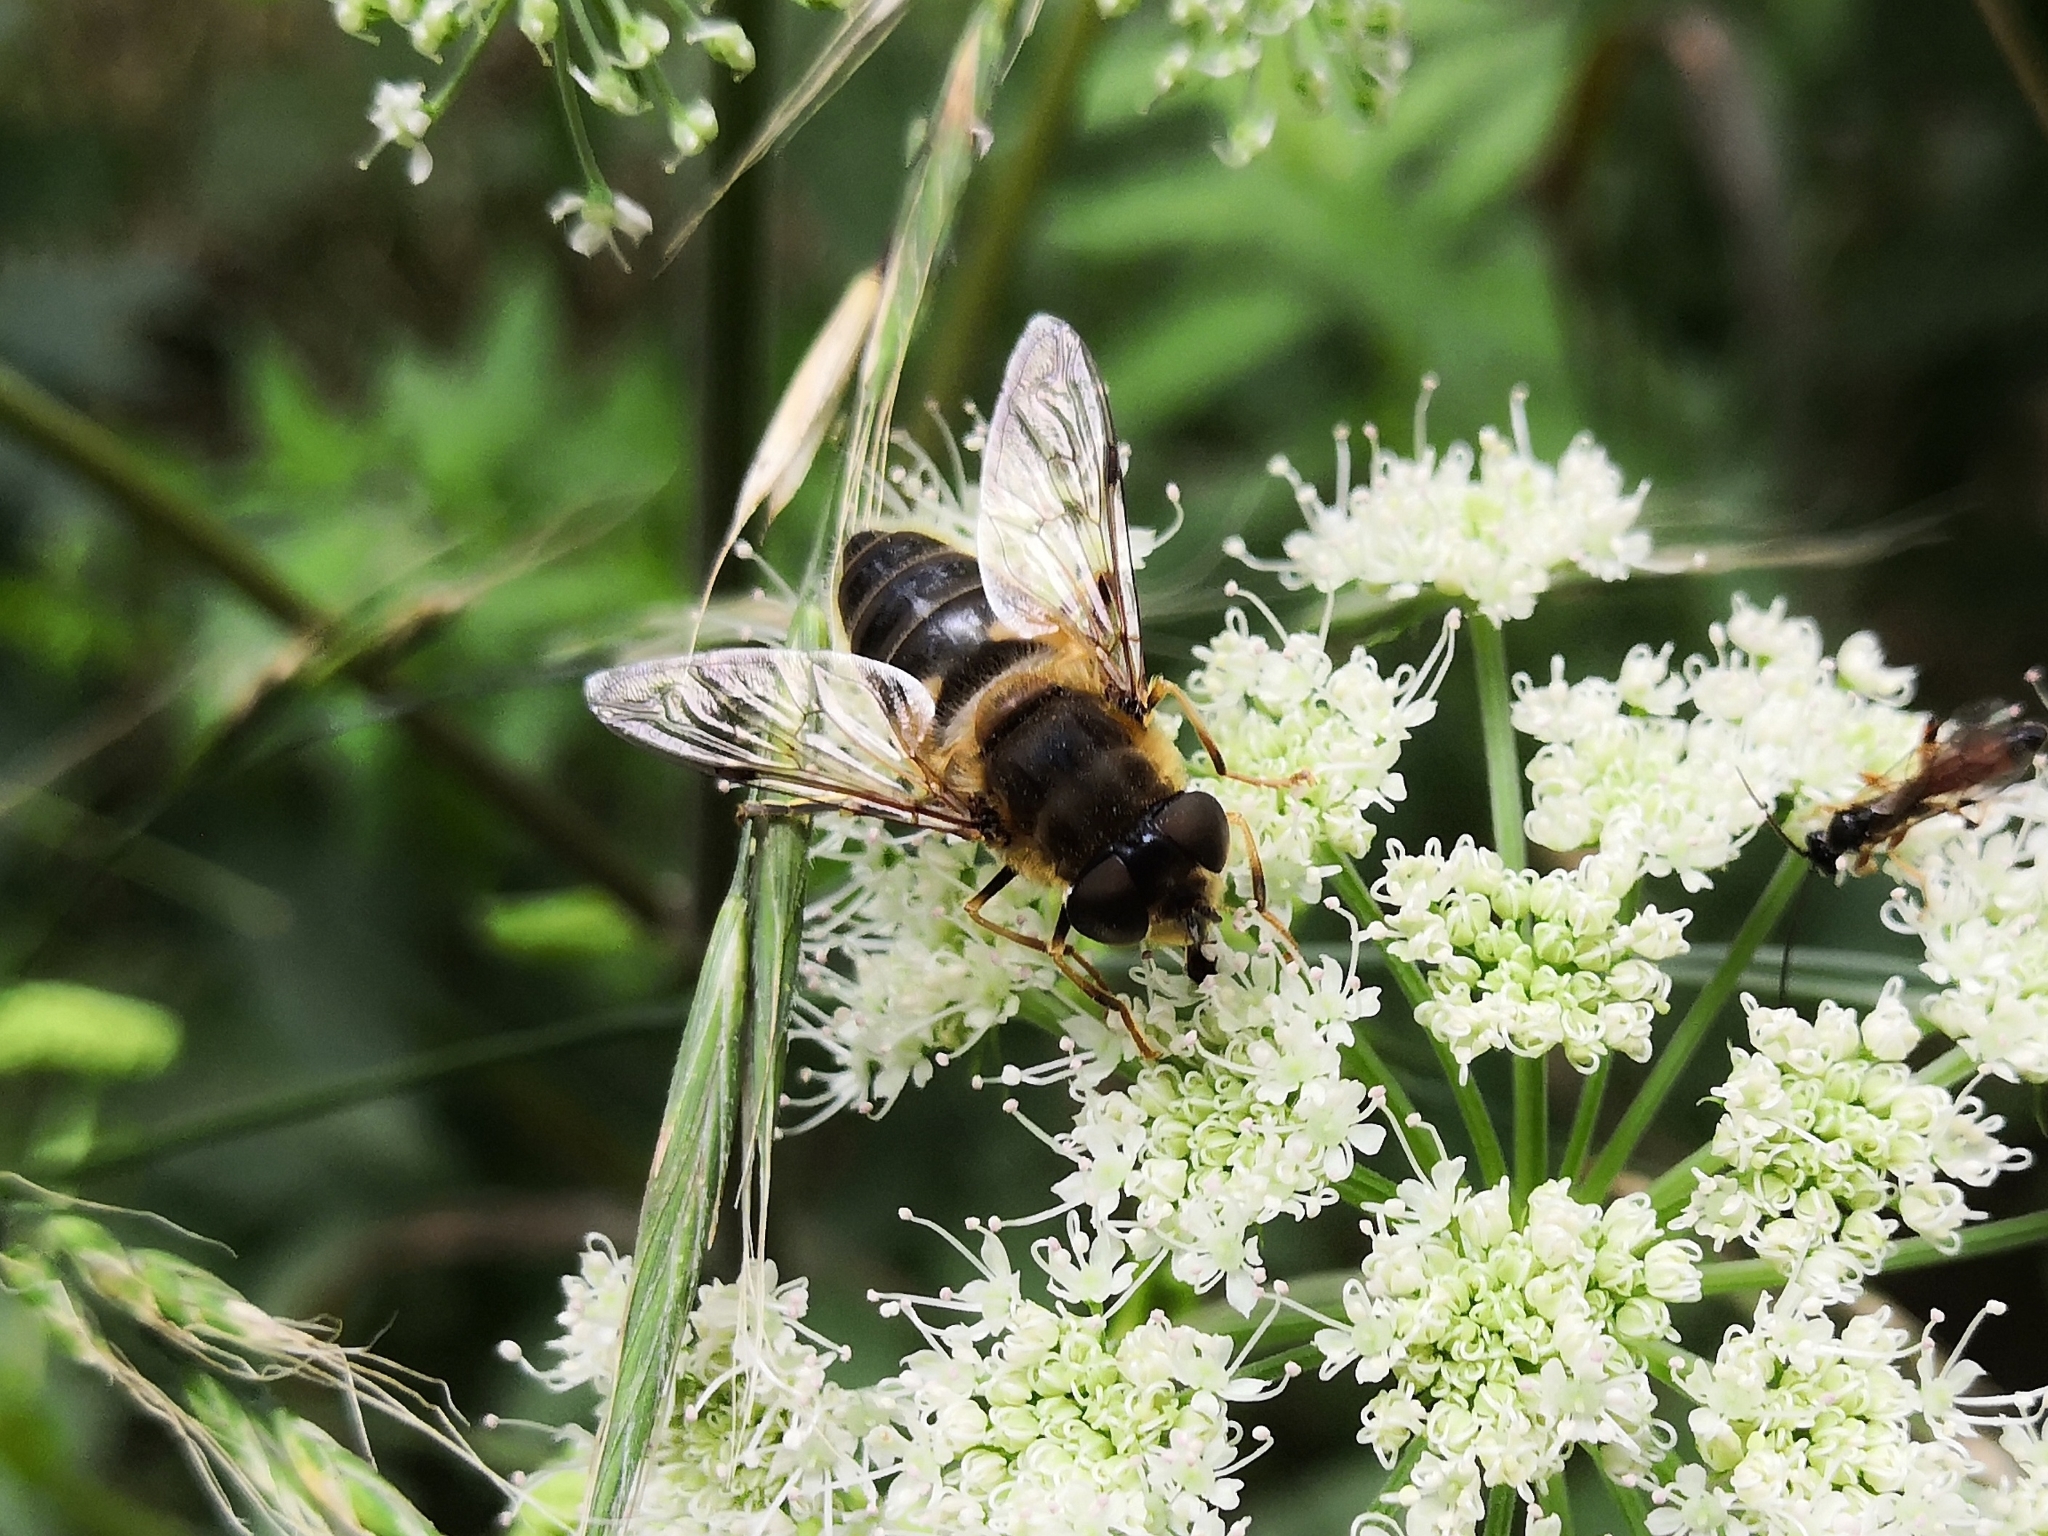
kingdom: Animalia
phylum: Arthropoda
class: Insecta
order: Diptera
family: Syrphidae
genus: Eristalis
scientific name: Eristalis pertinax
